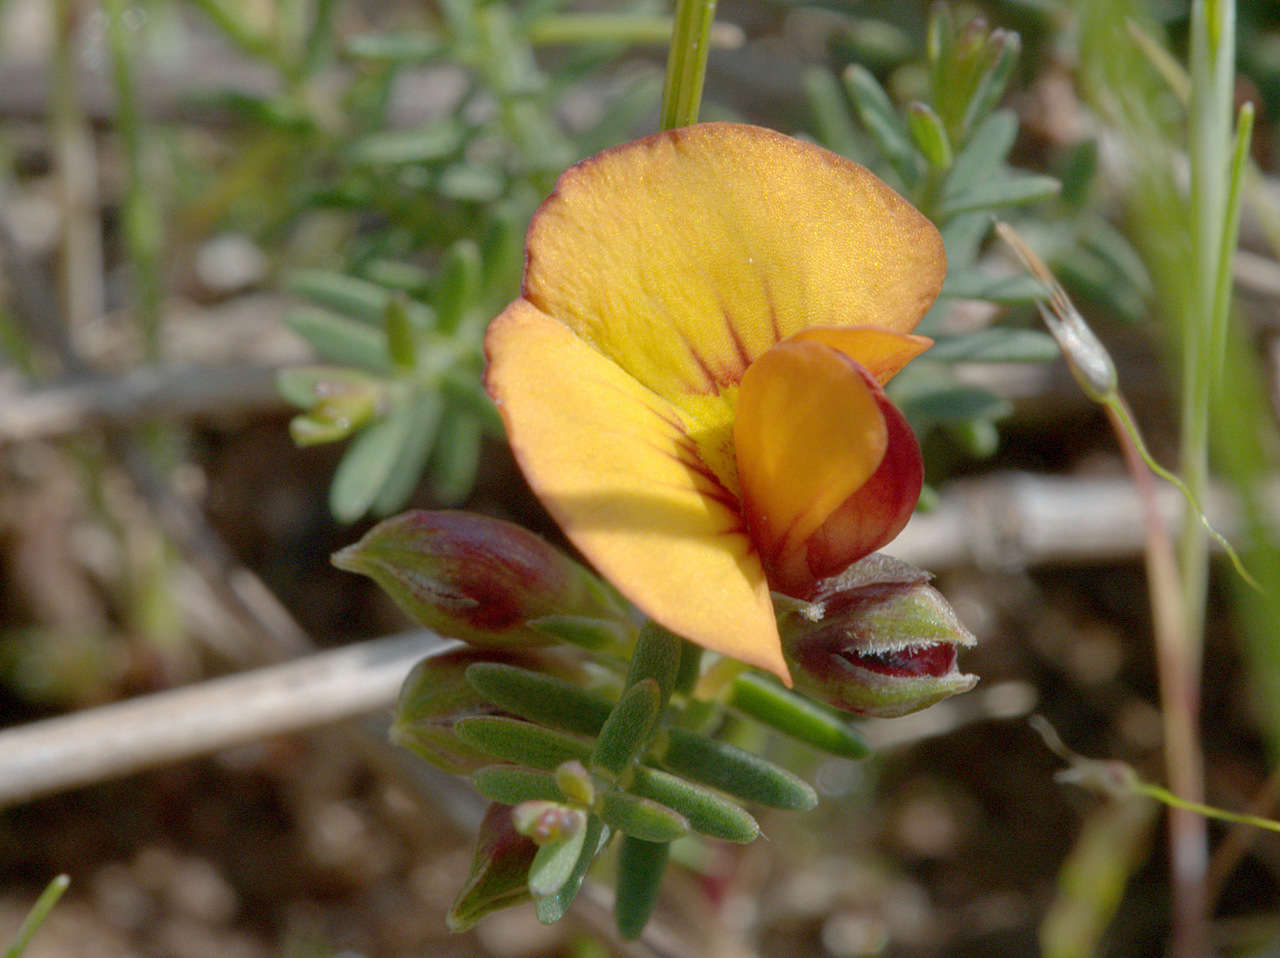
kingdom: Plantae
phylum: Tracheophyta
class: Magnoliopsida
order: Fabales
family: Fabaceae
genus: Eutaxia
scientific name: Eutaxia microphylla
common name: Mallee bush-pea
